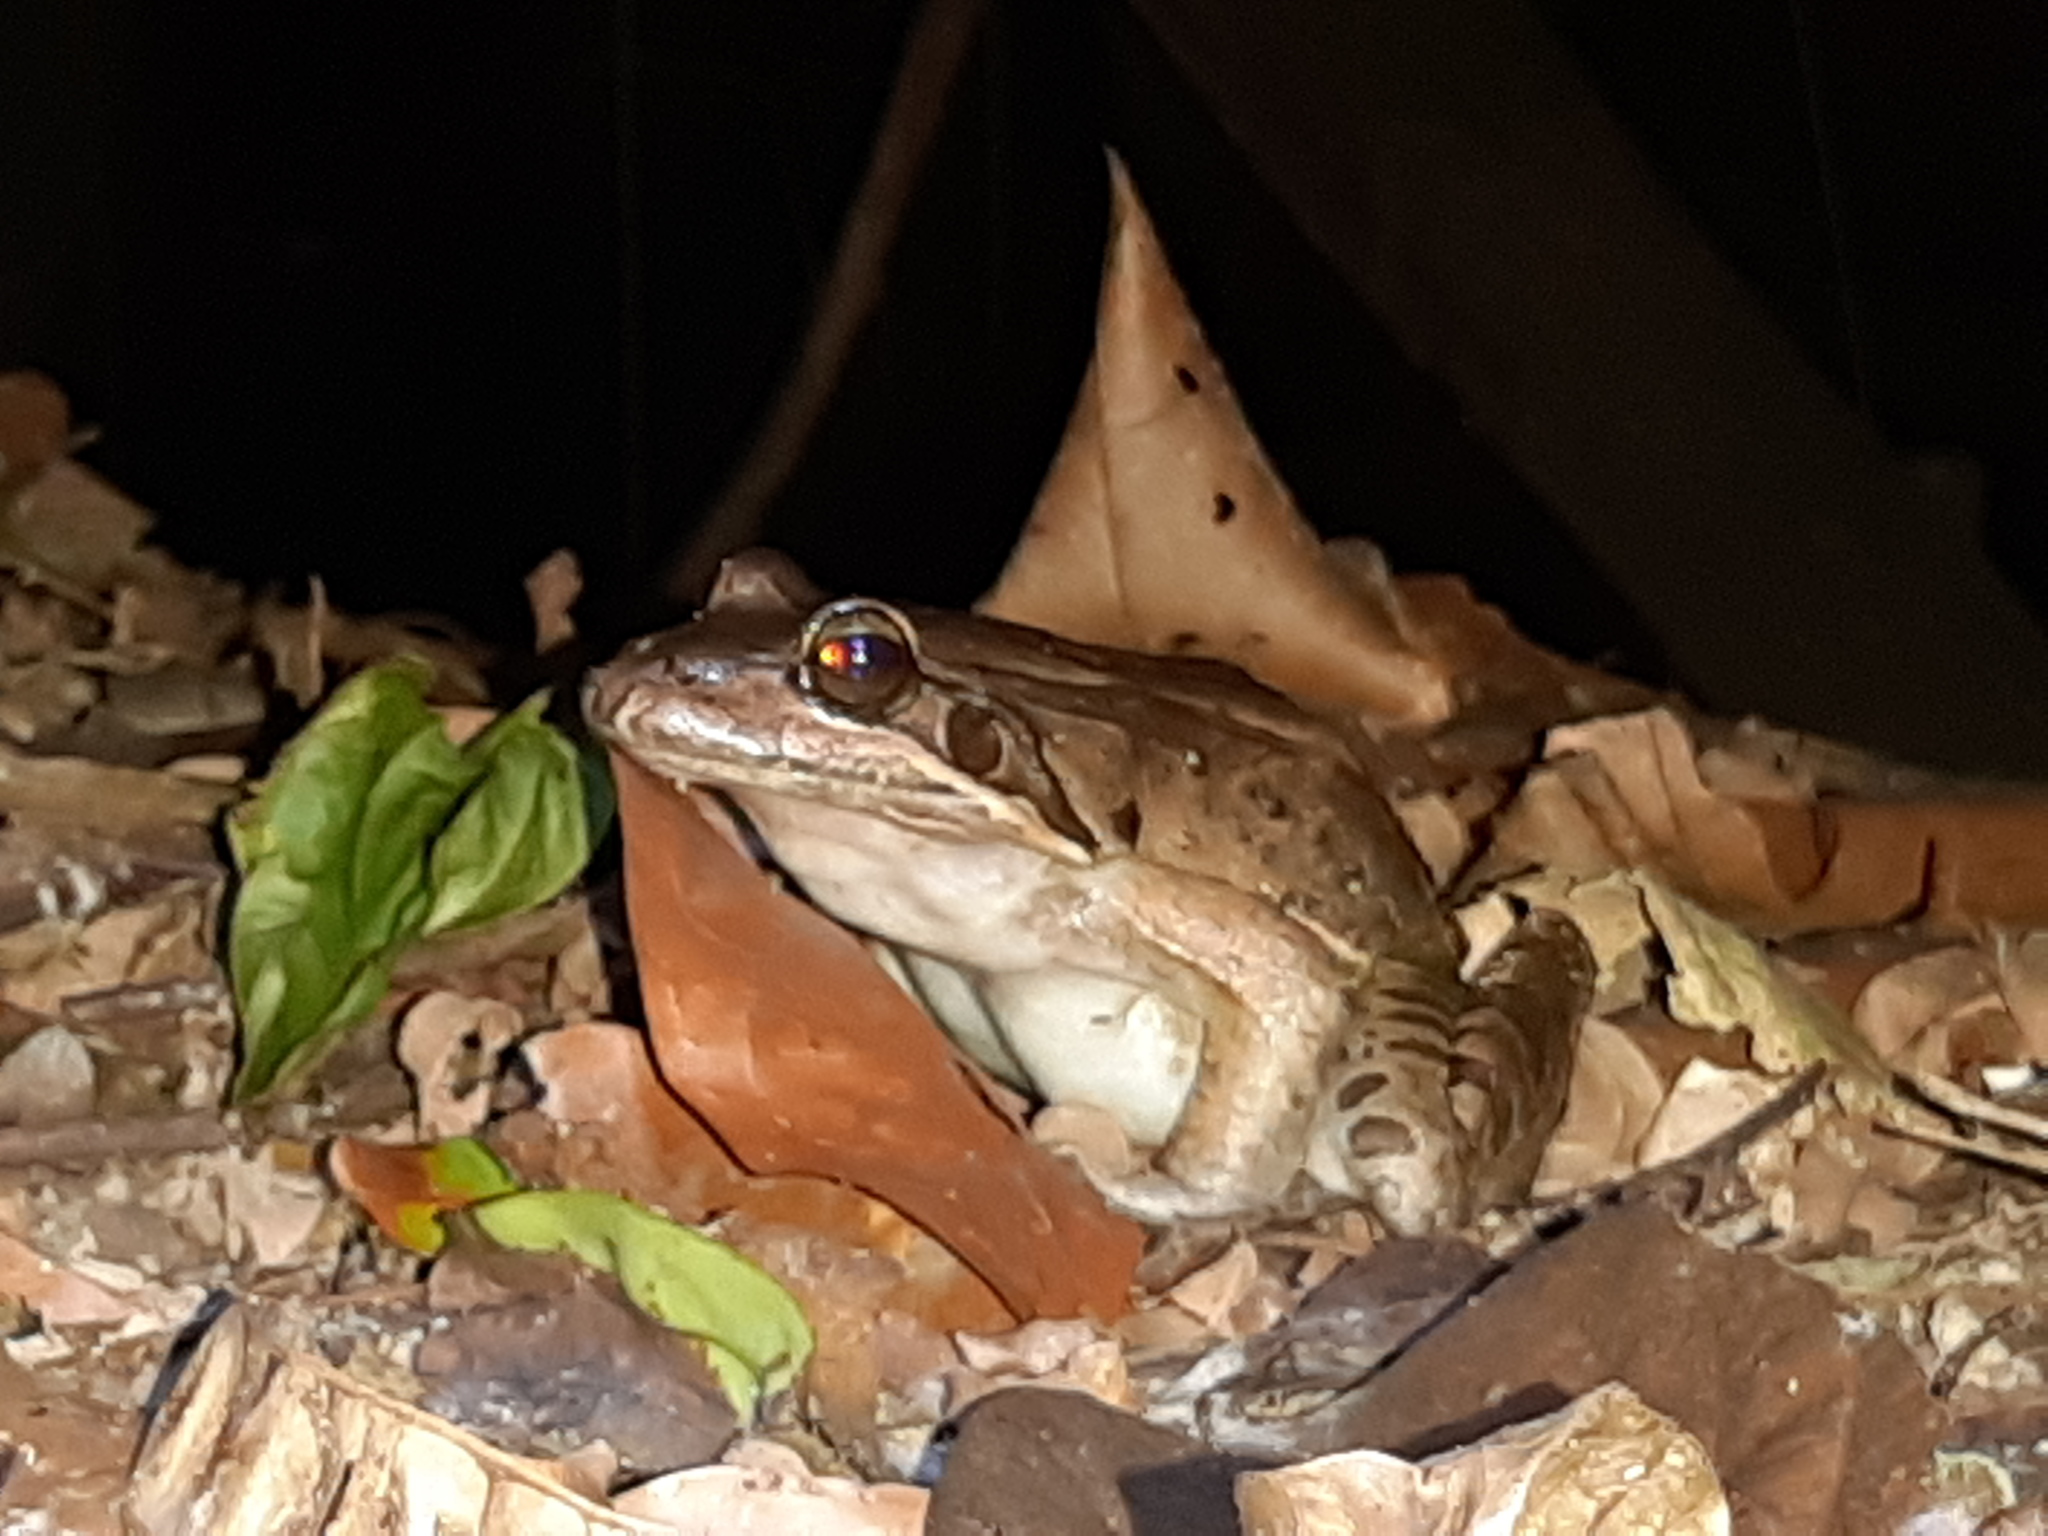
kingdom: Animalia
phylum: Chordata
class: Amphibia
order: Anura
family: Leptodactylidae
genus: Leptodactylus
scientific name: Leptodactylus bolivianus
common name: Bolivian white-lipped frog
